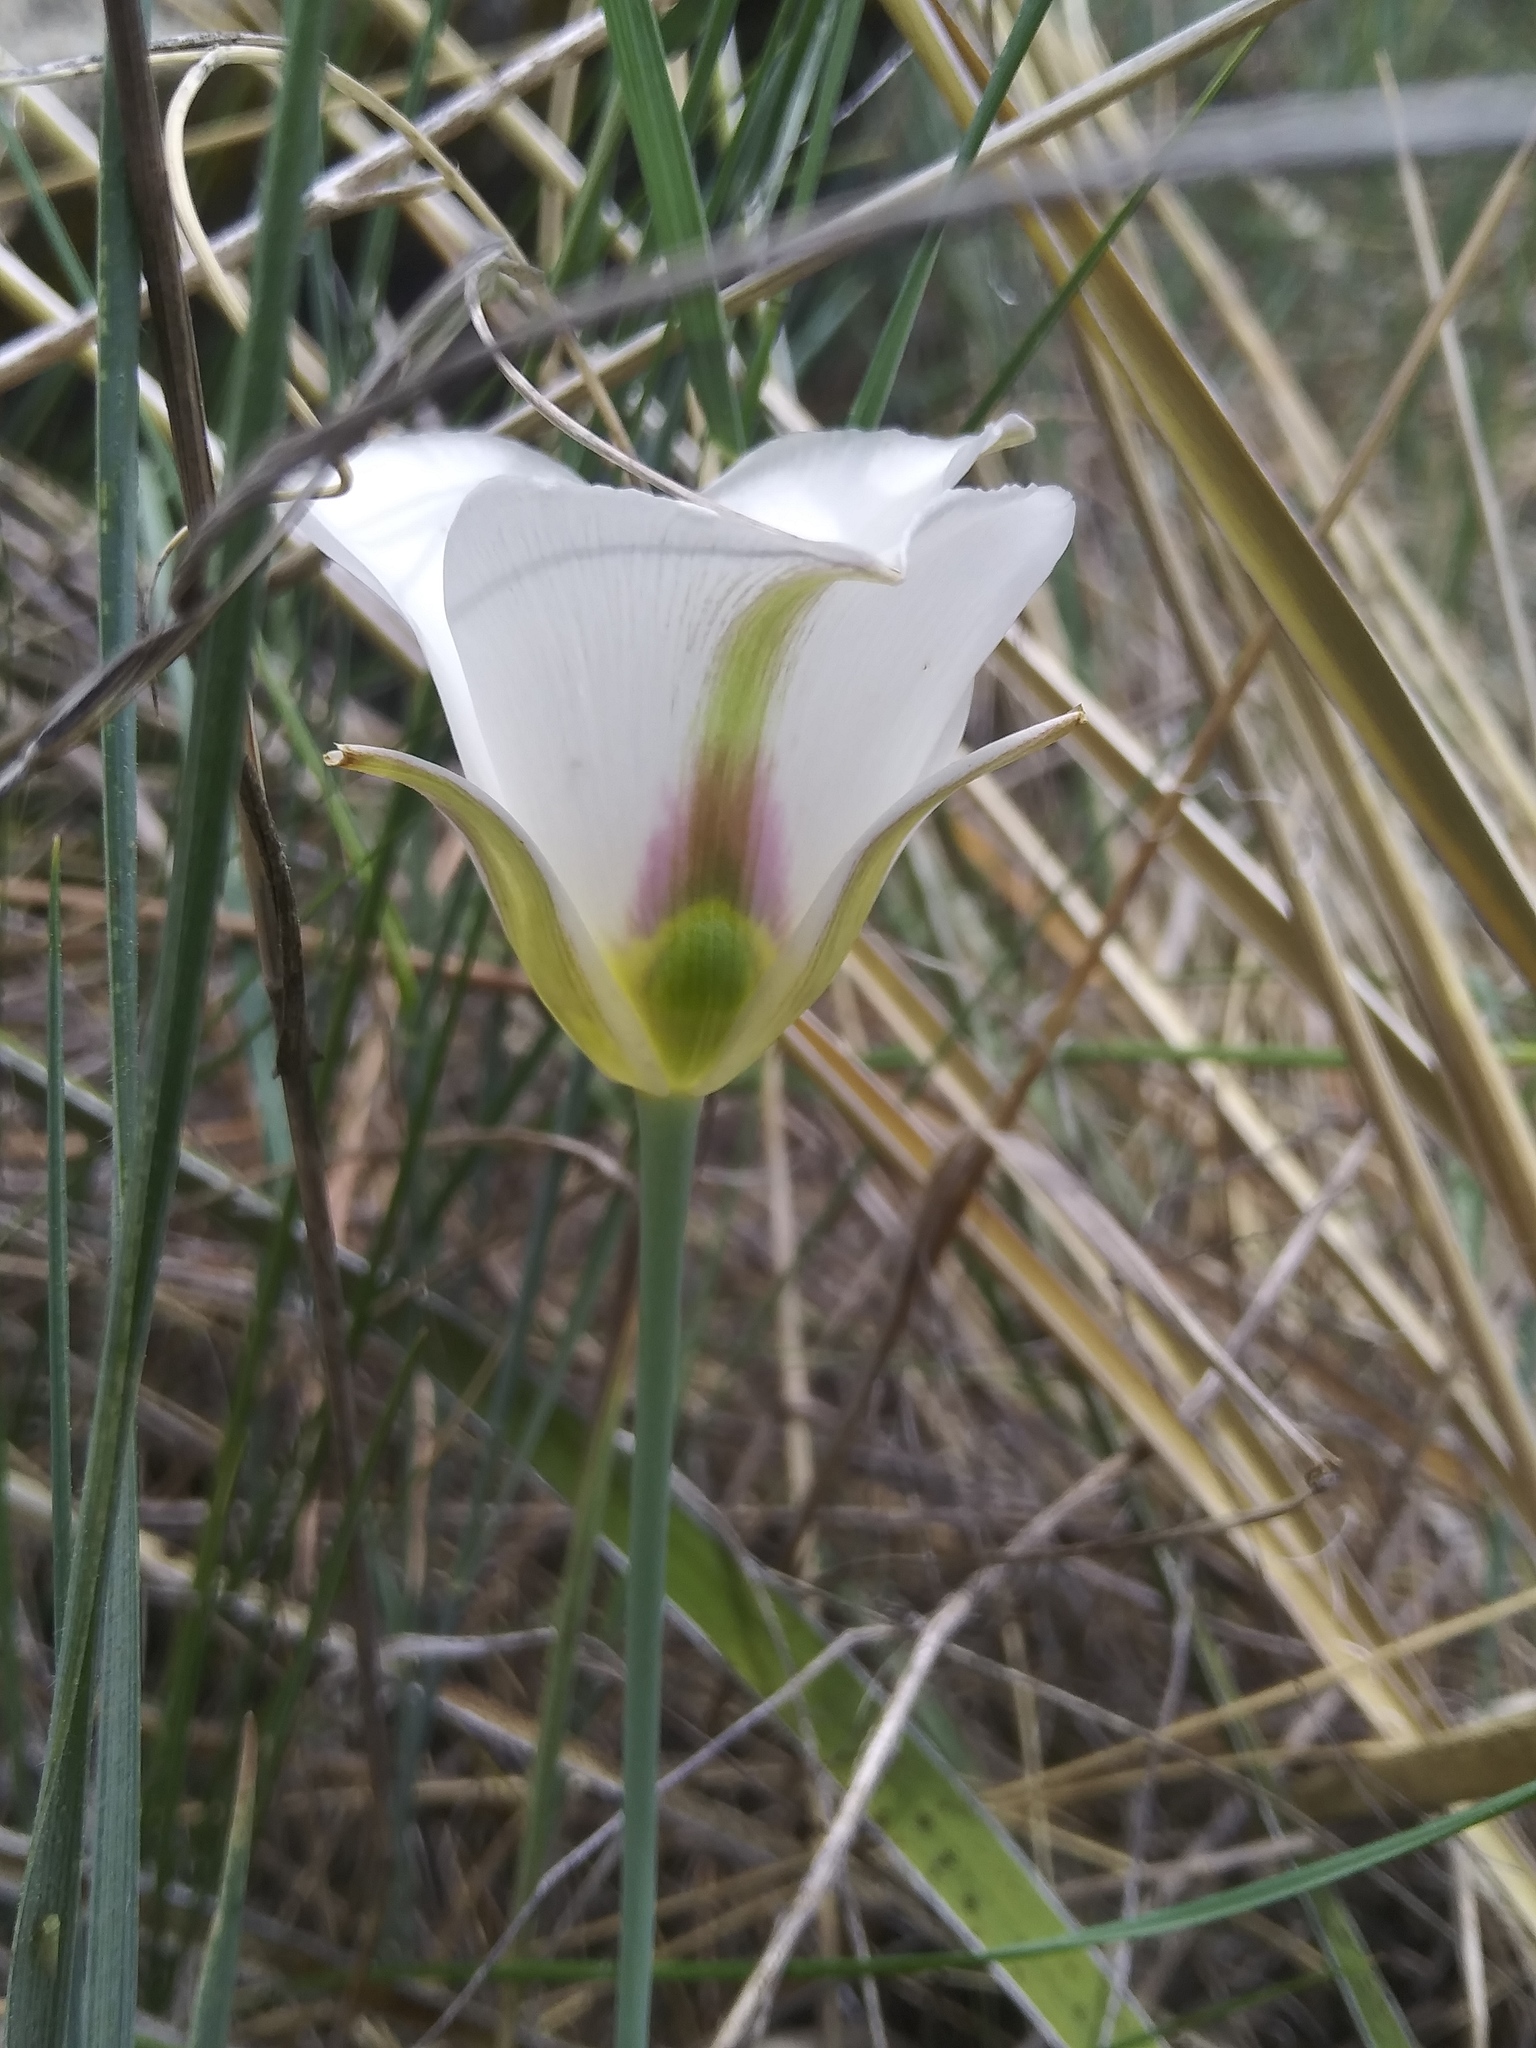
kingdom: Plantae
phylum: Tracheophyta
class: Liliopsida
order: Liliales
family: Liliaceae
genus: Calochortus
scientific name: Calochortus nuttallii
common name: Sego-lily
